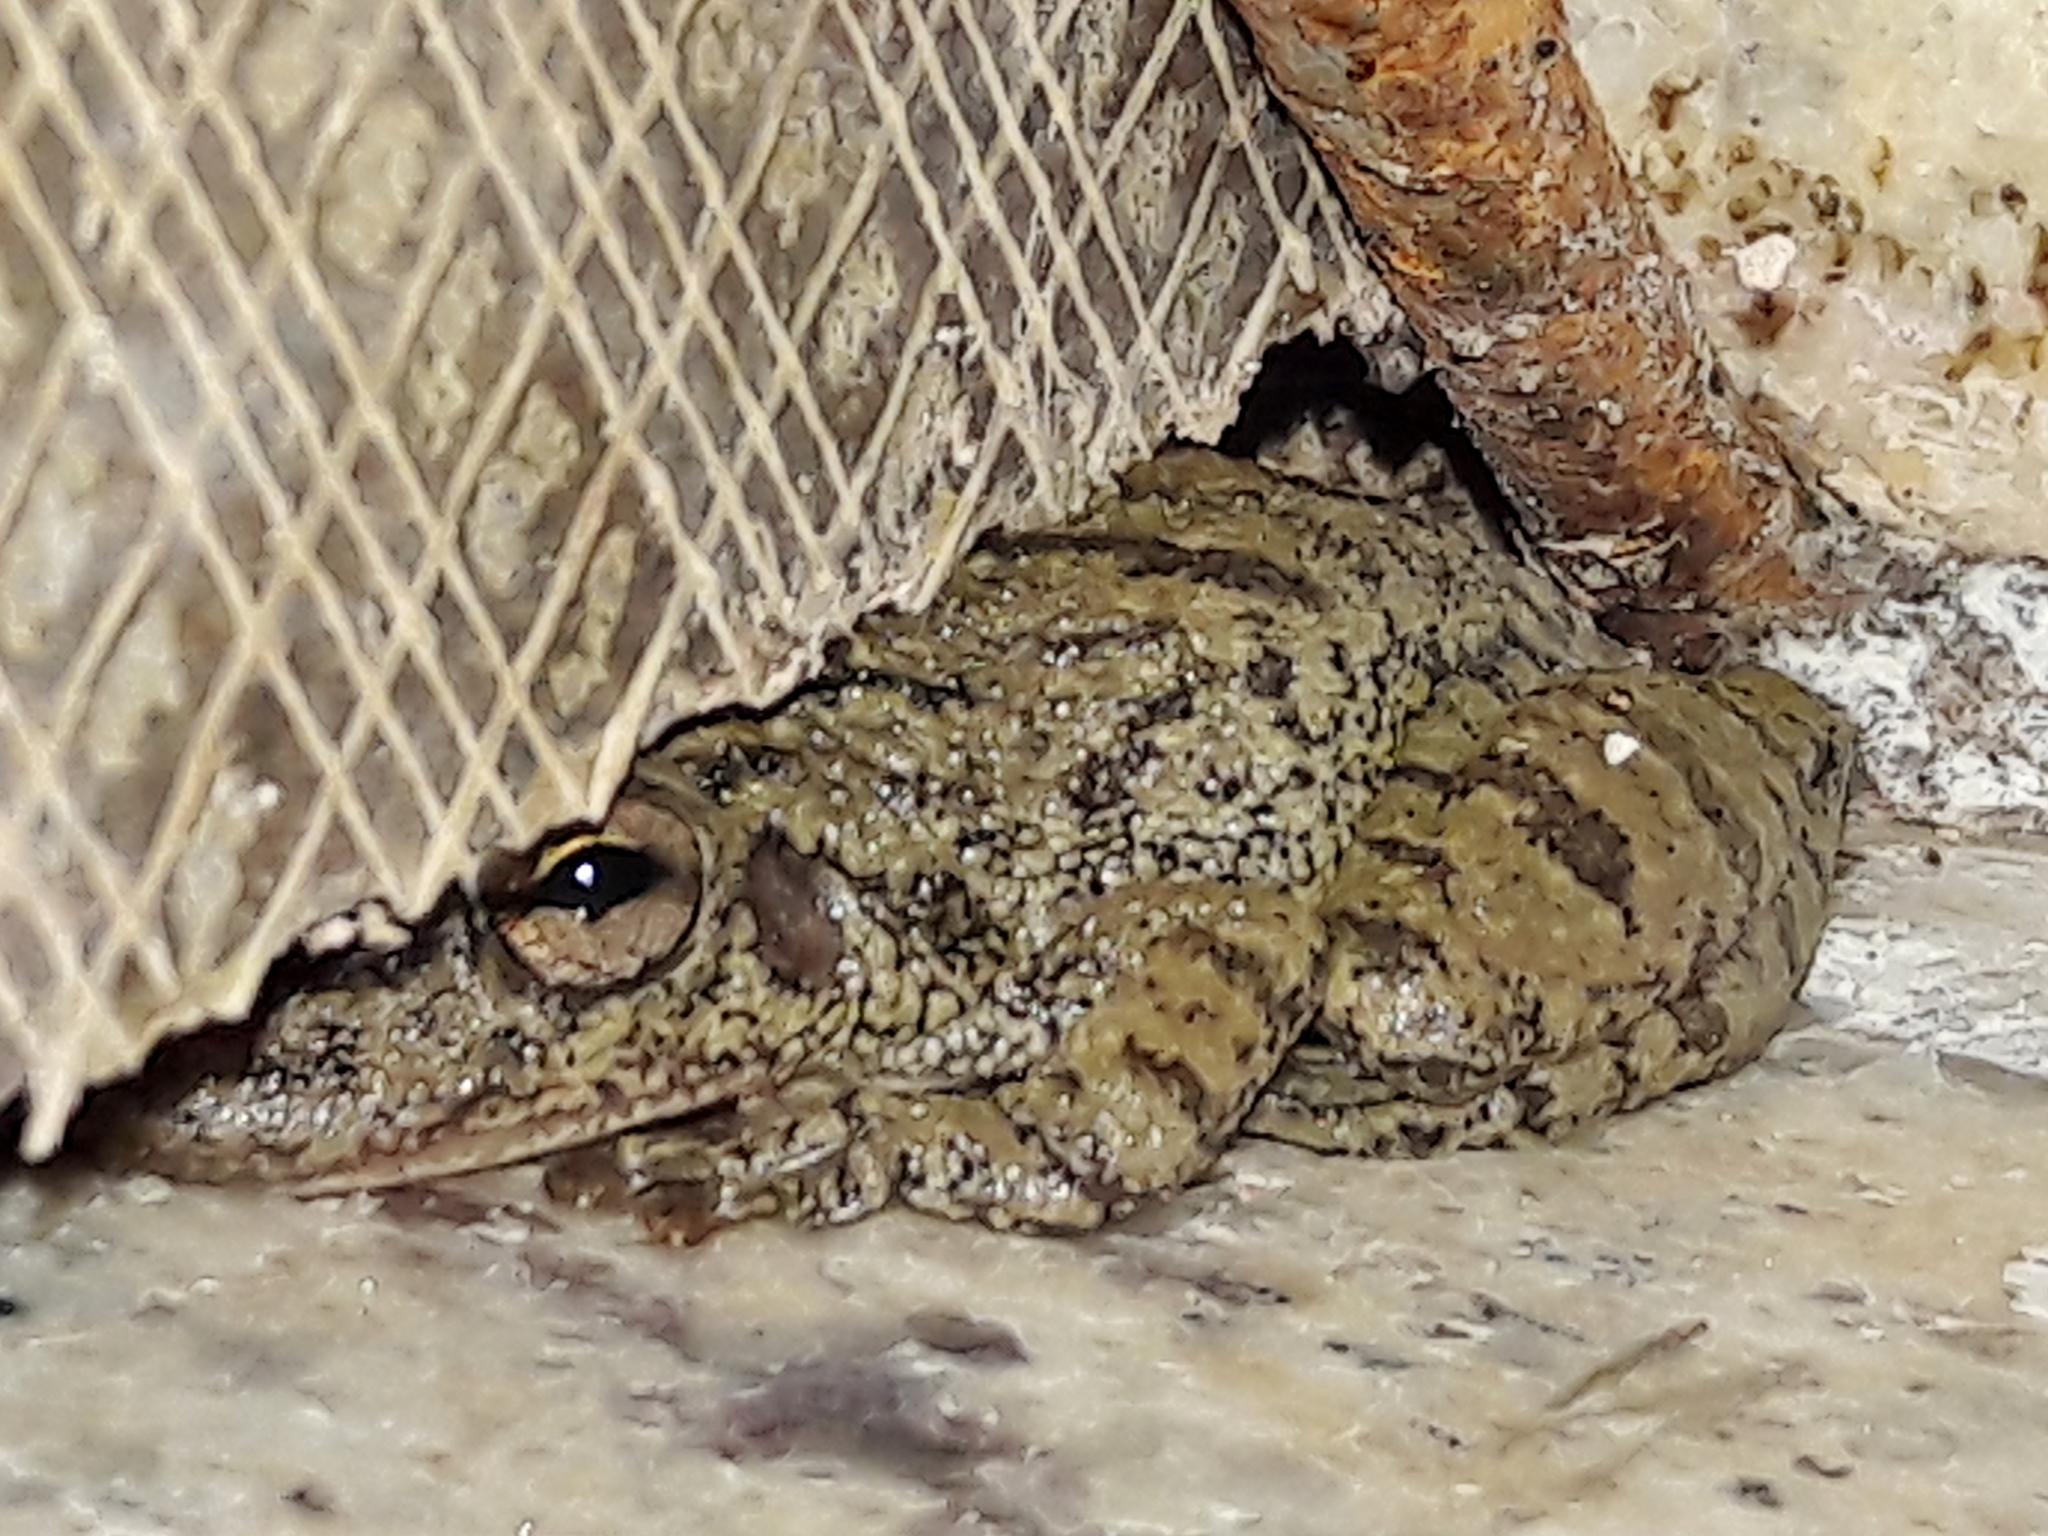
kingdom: Animalia
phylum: Chordata
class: Amphibia
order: Anura
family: Hylidae
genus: Scinax
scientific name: Scinax fuscovarius
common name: Fuscous-blotched treefrog
